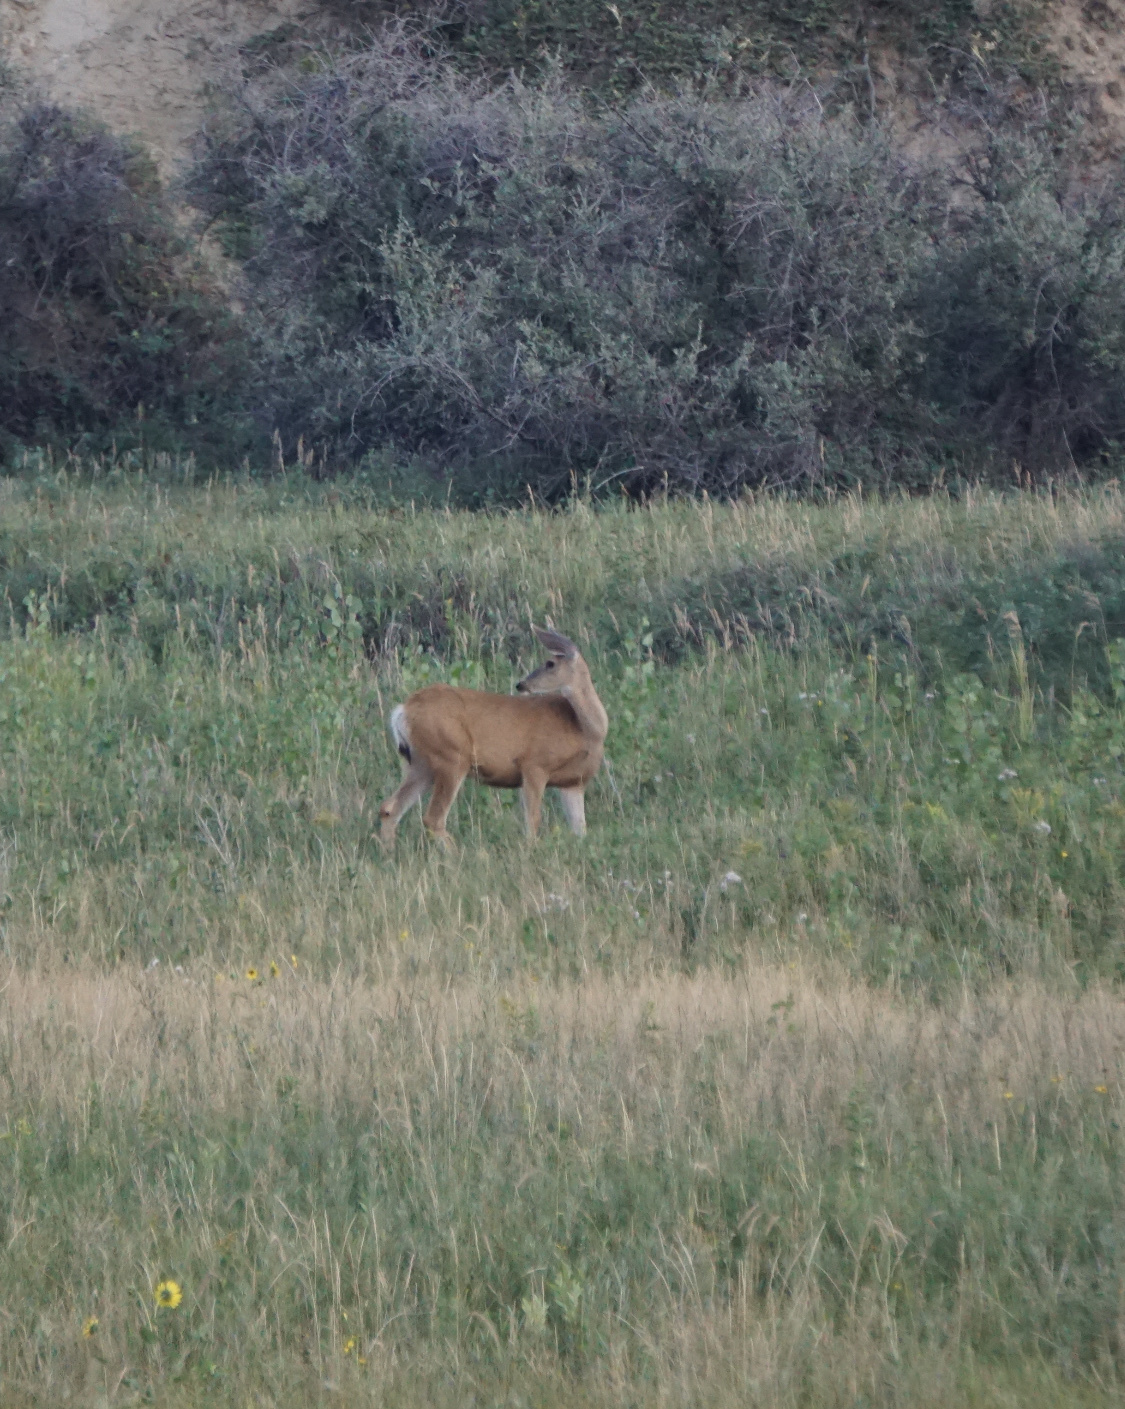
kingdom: Animalia
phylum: Chordata
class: Mammalia
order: Artiodactyla
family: Cervidae
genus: Odocoileus
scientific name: Odocoileus hemionus
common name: Mule deer
